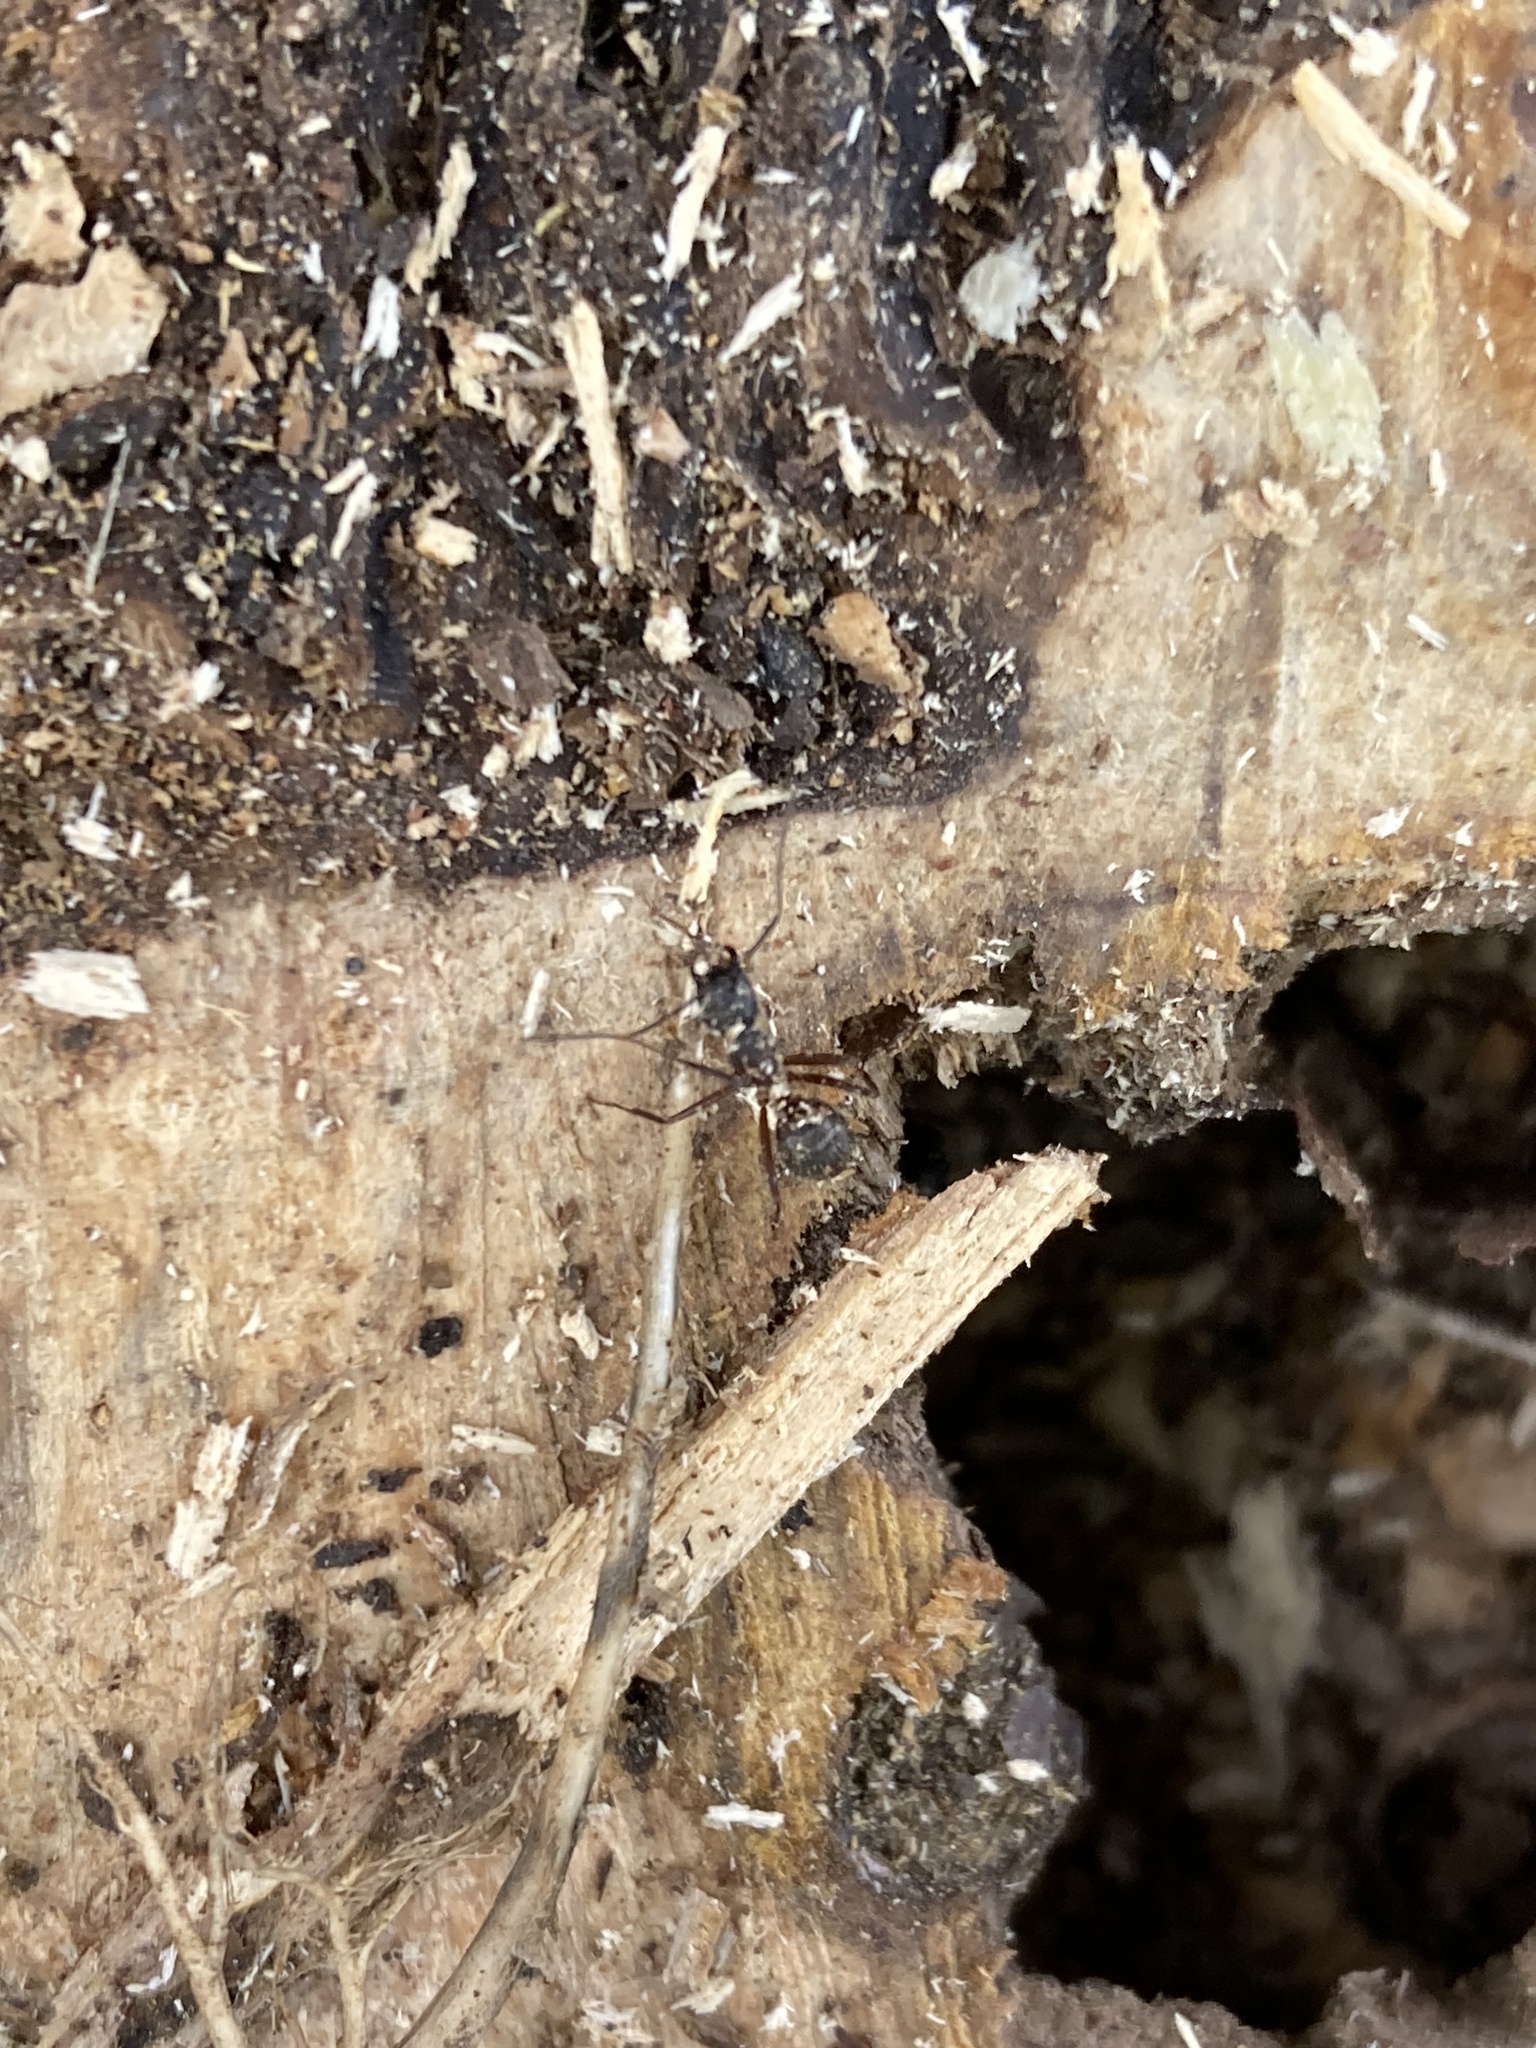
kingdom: Animalia
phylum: Arthropoda
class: Insecta
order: Hymenoptera
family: Formicidae
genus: Camponotus
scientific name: Camponotus chromaiodes
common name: Red carpenter ant
